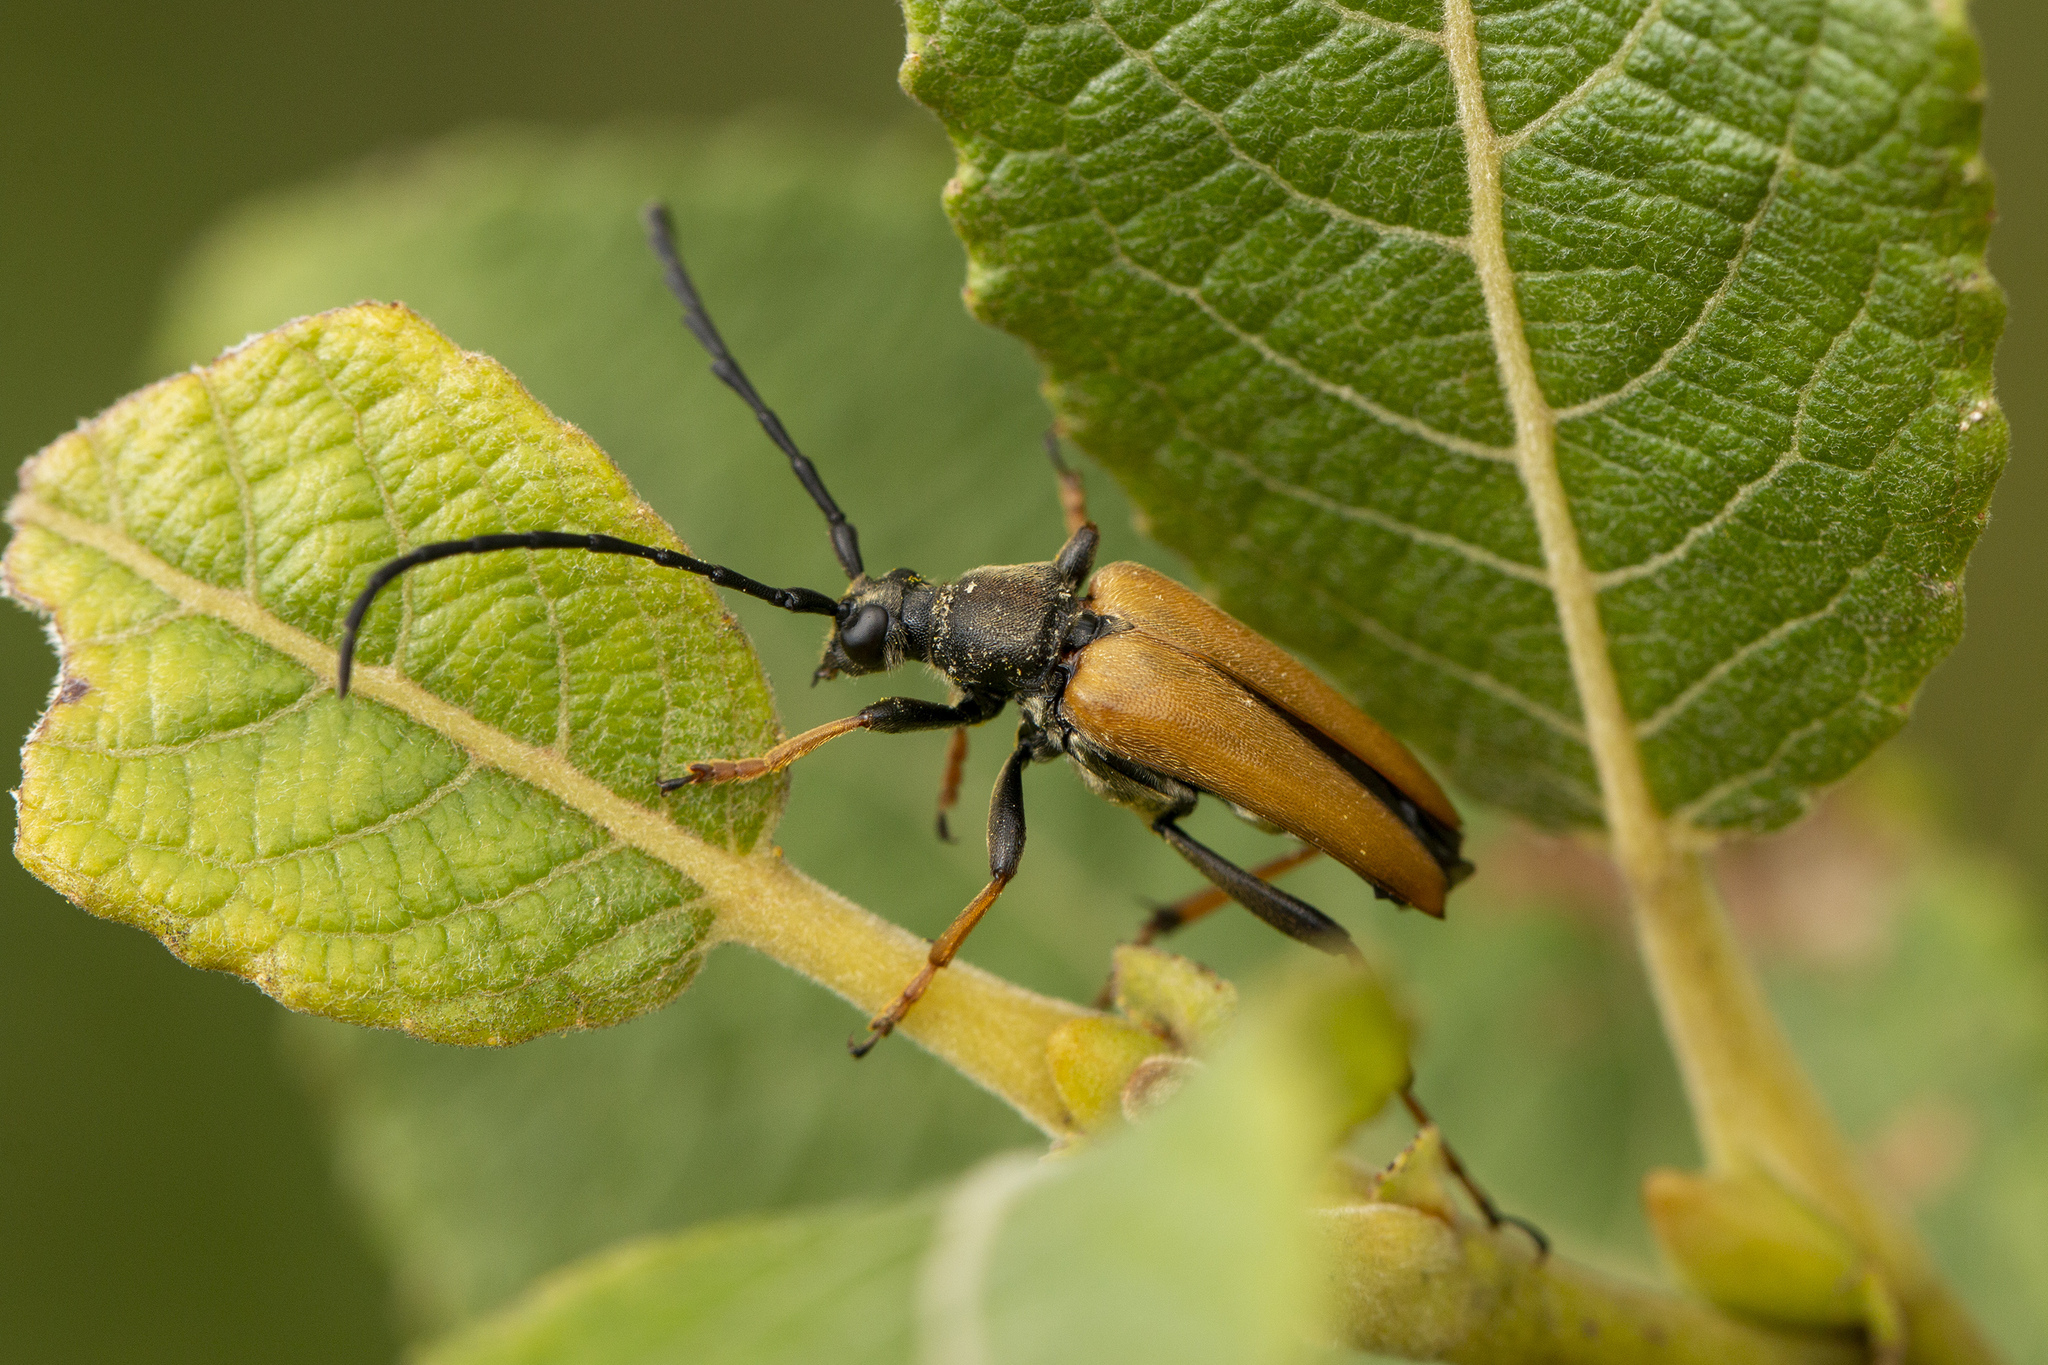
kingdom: Animalia
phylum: Arthropoda
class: Insecta
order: Coleoptera
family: Cerambycidae
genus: Stictoleptura
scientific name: Stictoleptura rubra
